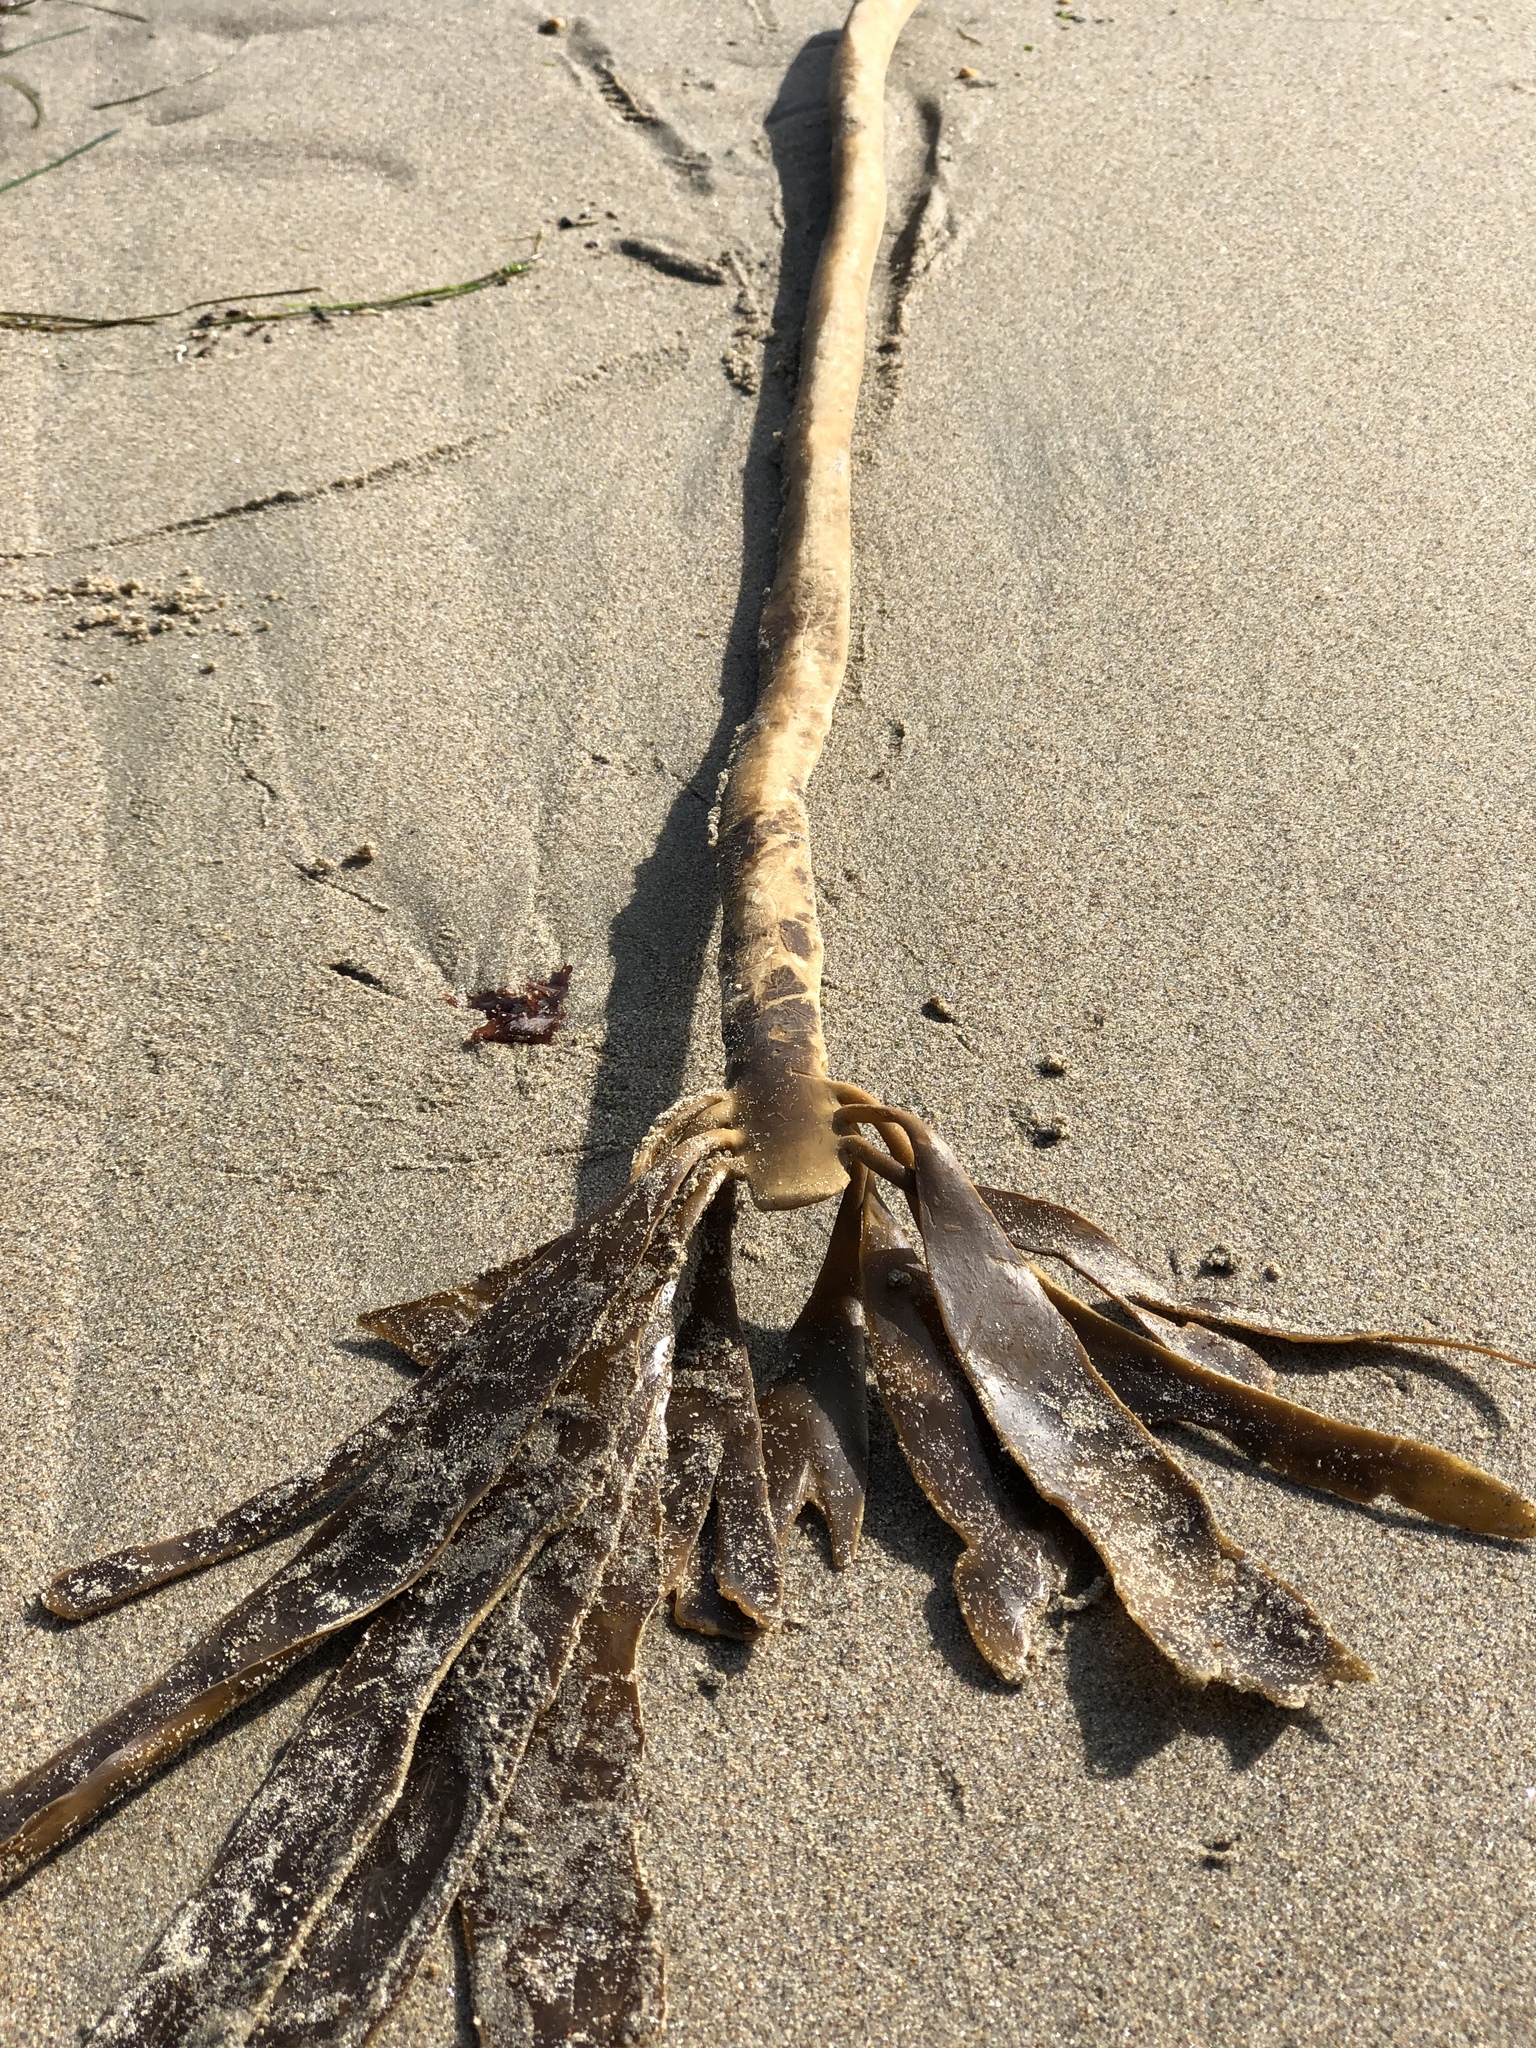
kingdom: Chromista
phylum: Ochrophyta
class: Phaeophyceae
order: Laminariales
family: Alariaceae
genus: Pterygophora
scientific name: Pterygophora californica
